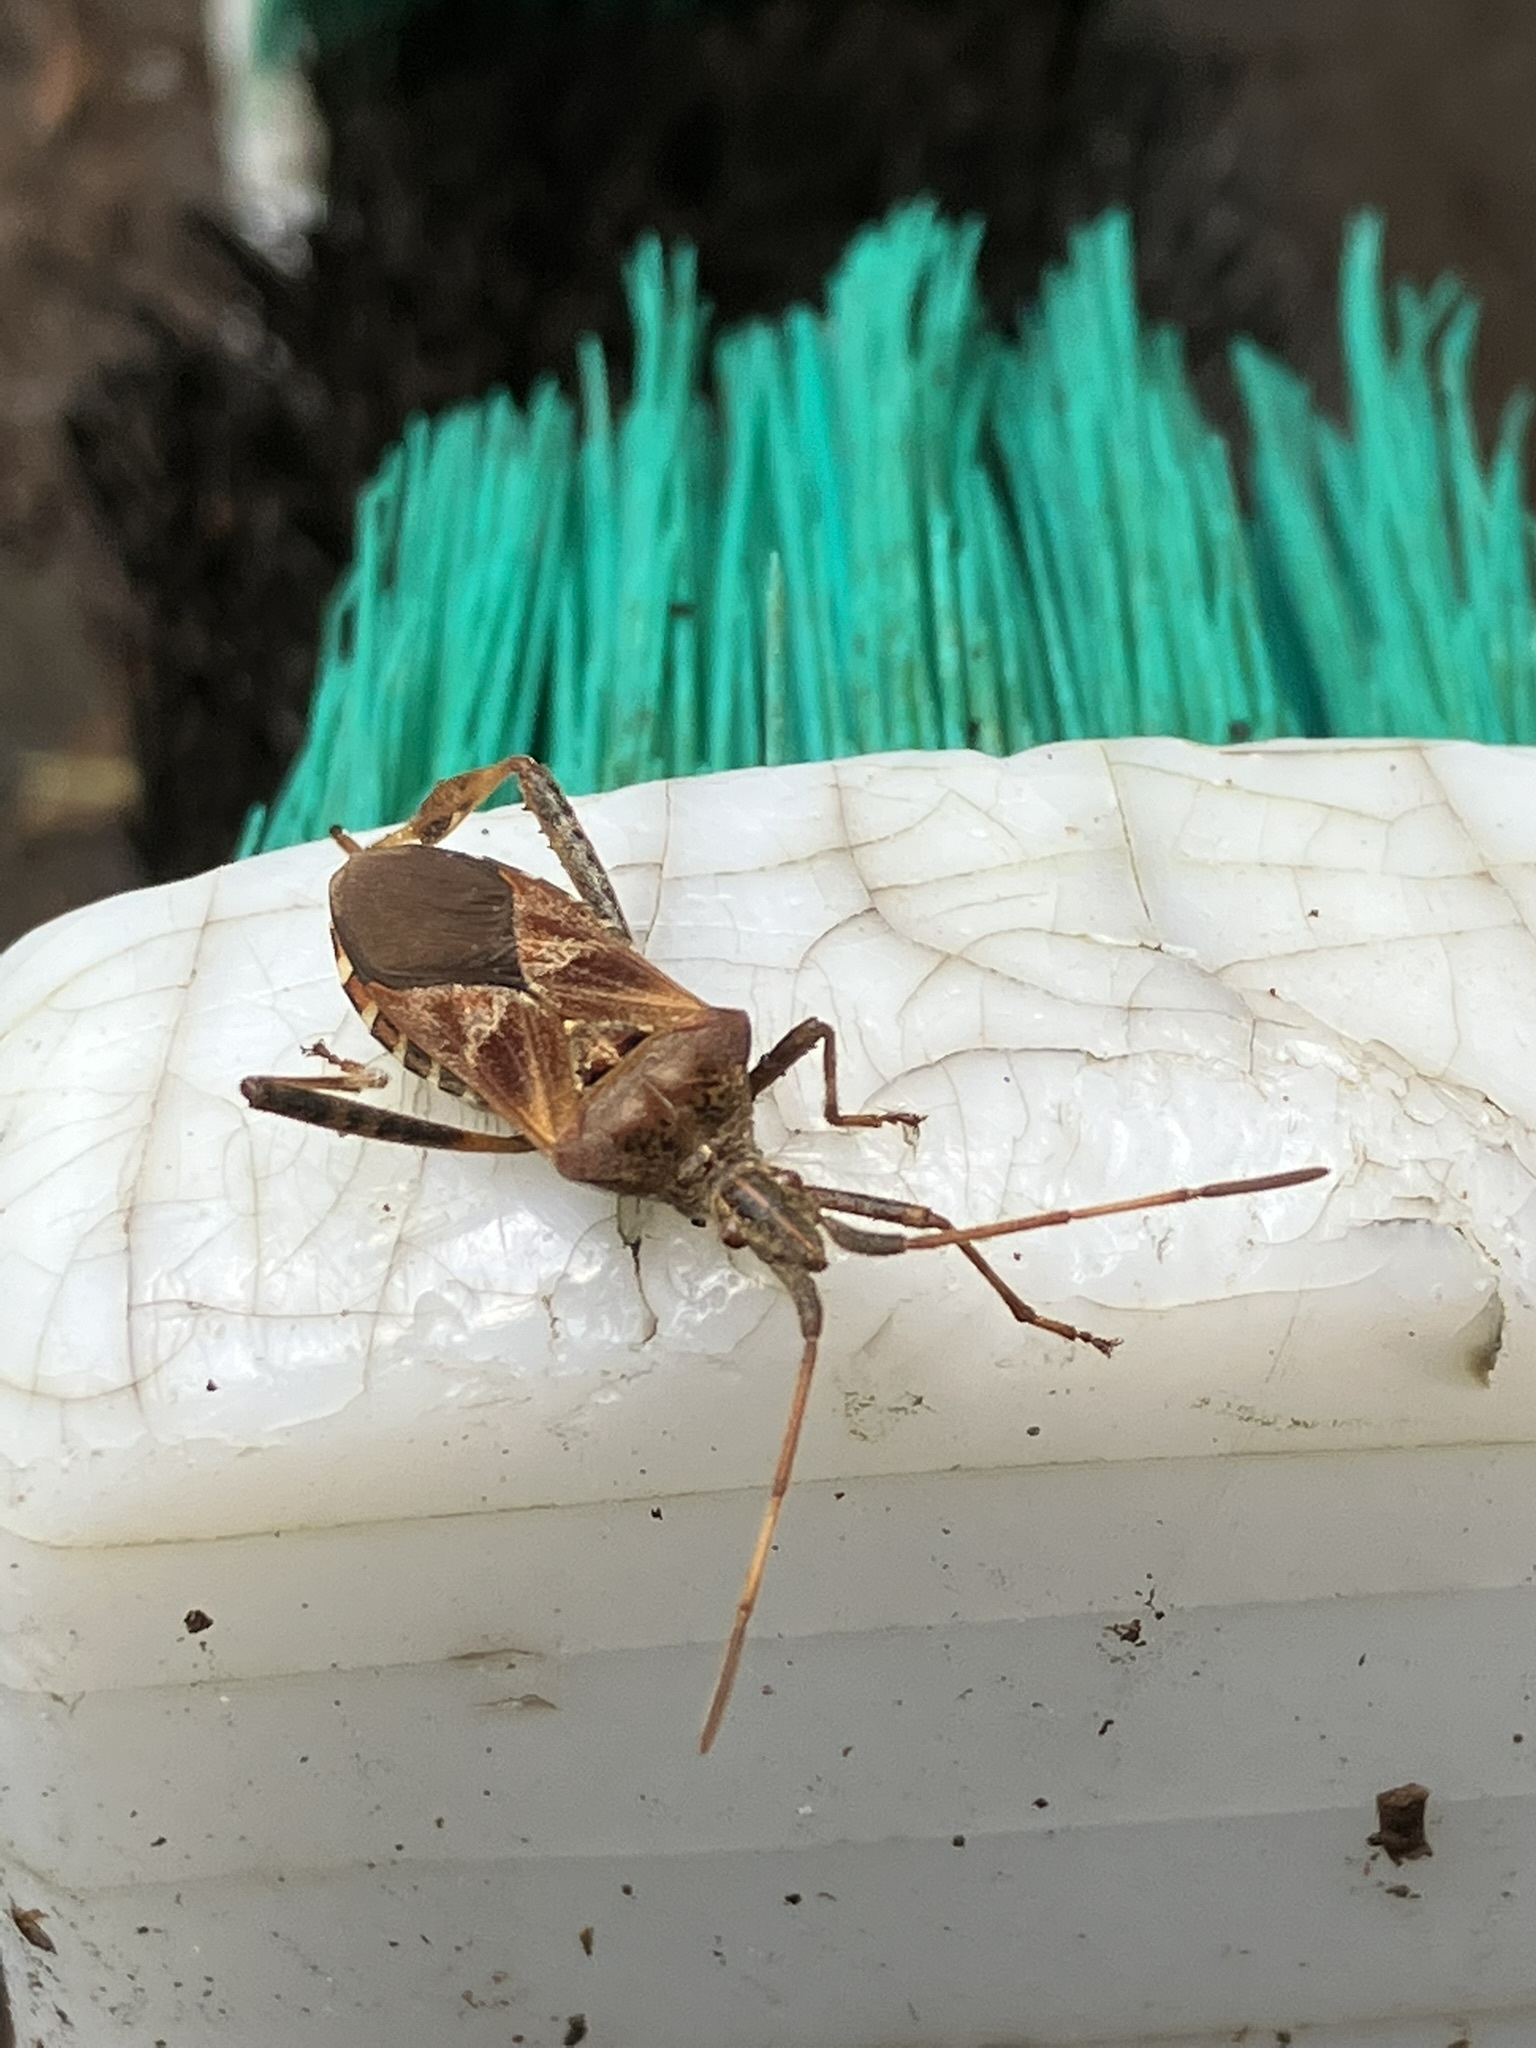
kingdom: Animalia
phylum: Arthropoda
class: Insecta
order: Hemiptera
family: Coreidae
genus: Leptoglossus
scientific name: Leptoglossus occidentalis
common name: Western conifer-seed bug
